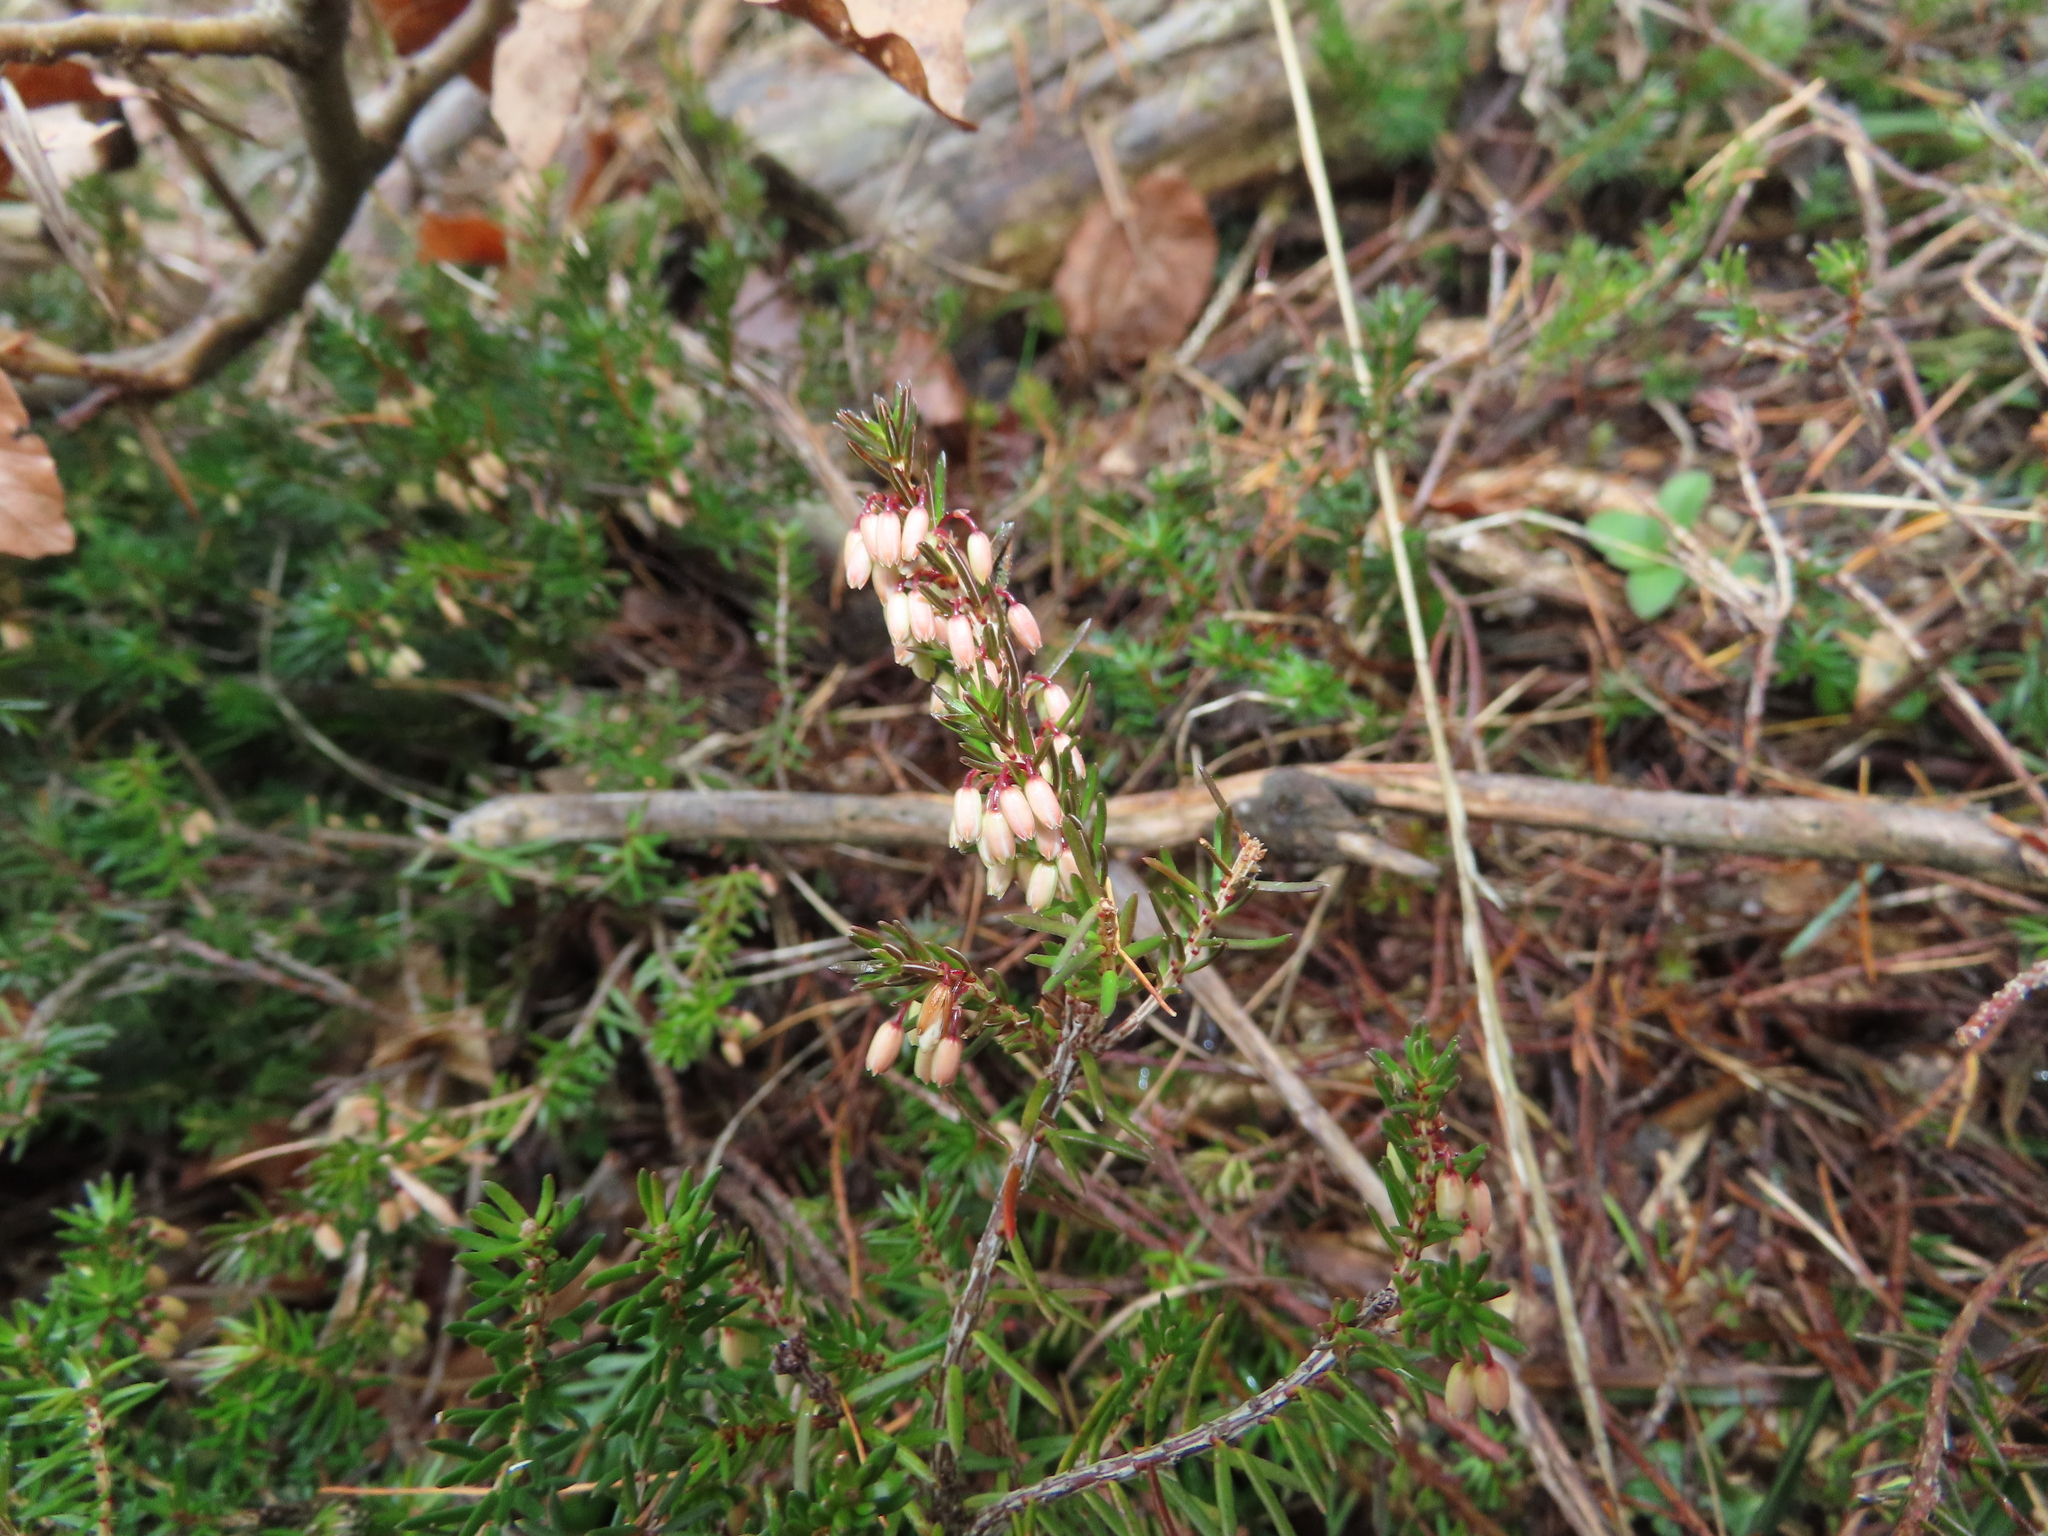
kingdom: Plantae
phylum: Tracheophyta
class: Magnoliopsida
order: Ericales
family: Ericaceae
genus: Erica
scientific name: Erica carnea
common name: Winter heath
